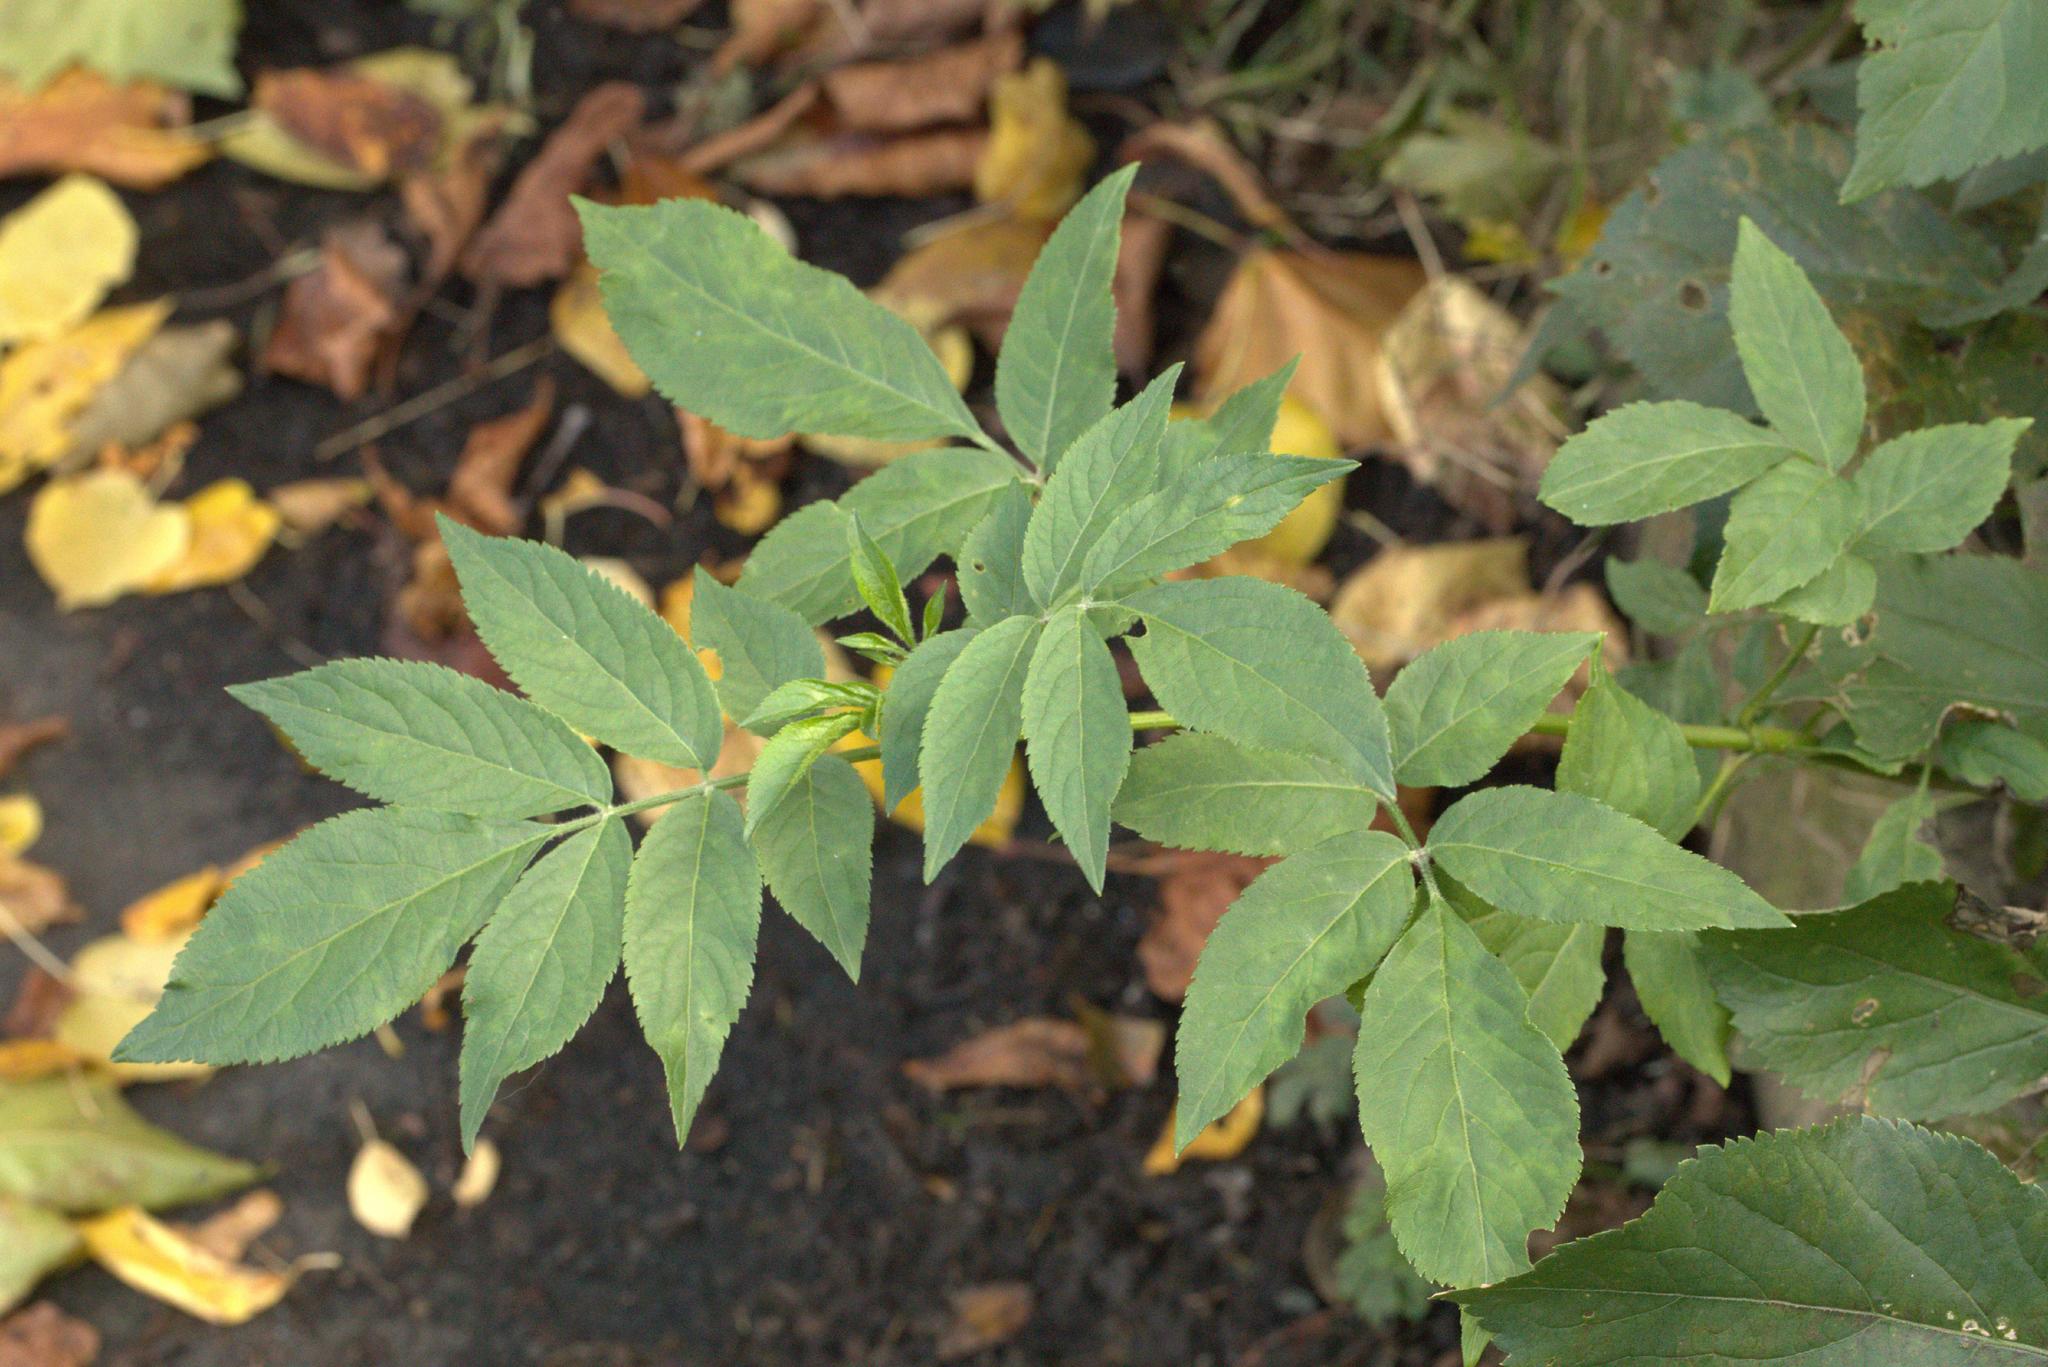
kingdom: Plantae
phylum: Tracheophyta
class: Magnoliopsida
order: Dipsacales
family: Viburnaceae
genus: Sambucus
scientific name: Sambucus nigra
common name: Elder
